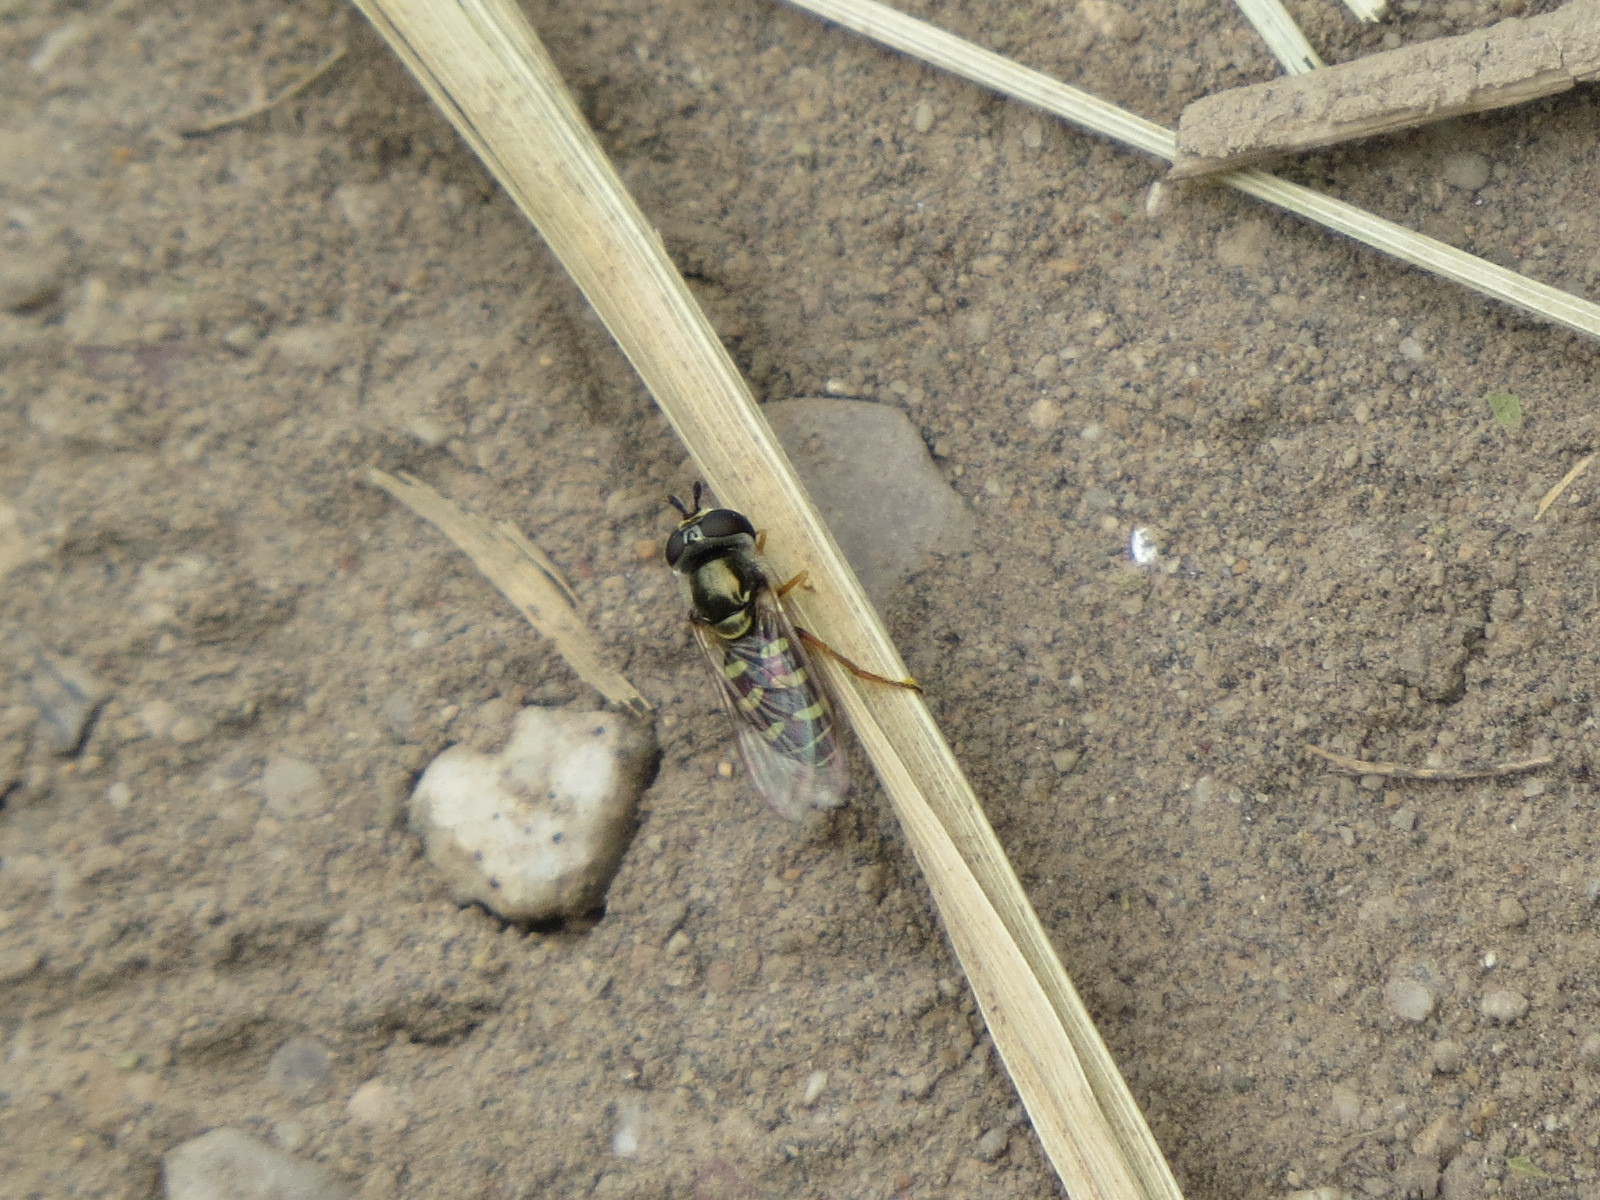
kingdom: Animalia
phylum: Arthropoda
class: Insecta
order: Diptera
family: Syrphidae
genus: Eupeodes
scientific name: Eupeodes volucris
